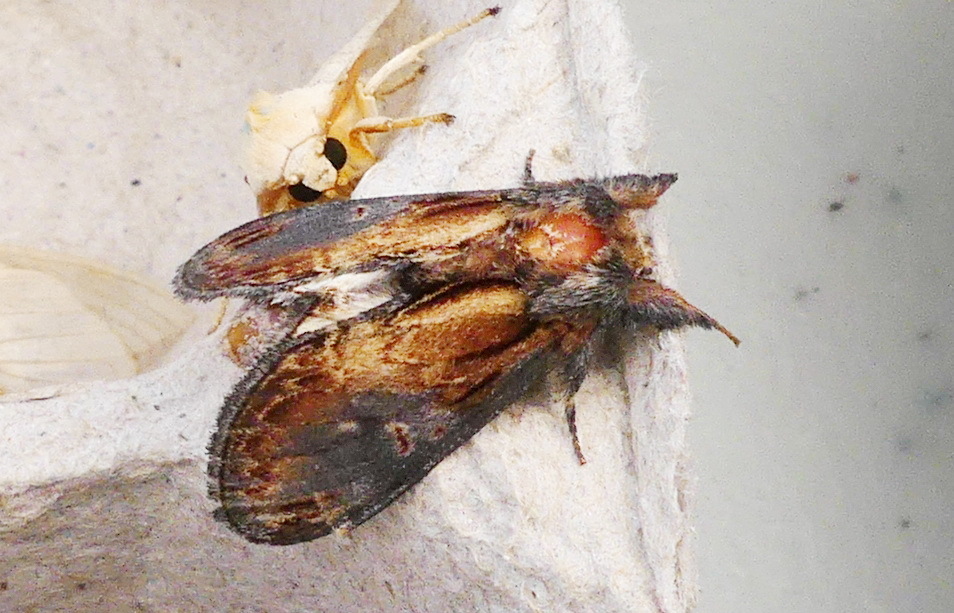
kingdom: Animalia
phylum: Arthropoda
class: Insecta
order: Lepidoptera
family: Notodontidae
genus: Notodonta
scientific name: Notodonta scitipennis
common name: Finned-willow prominent moth
